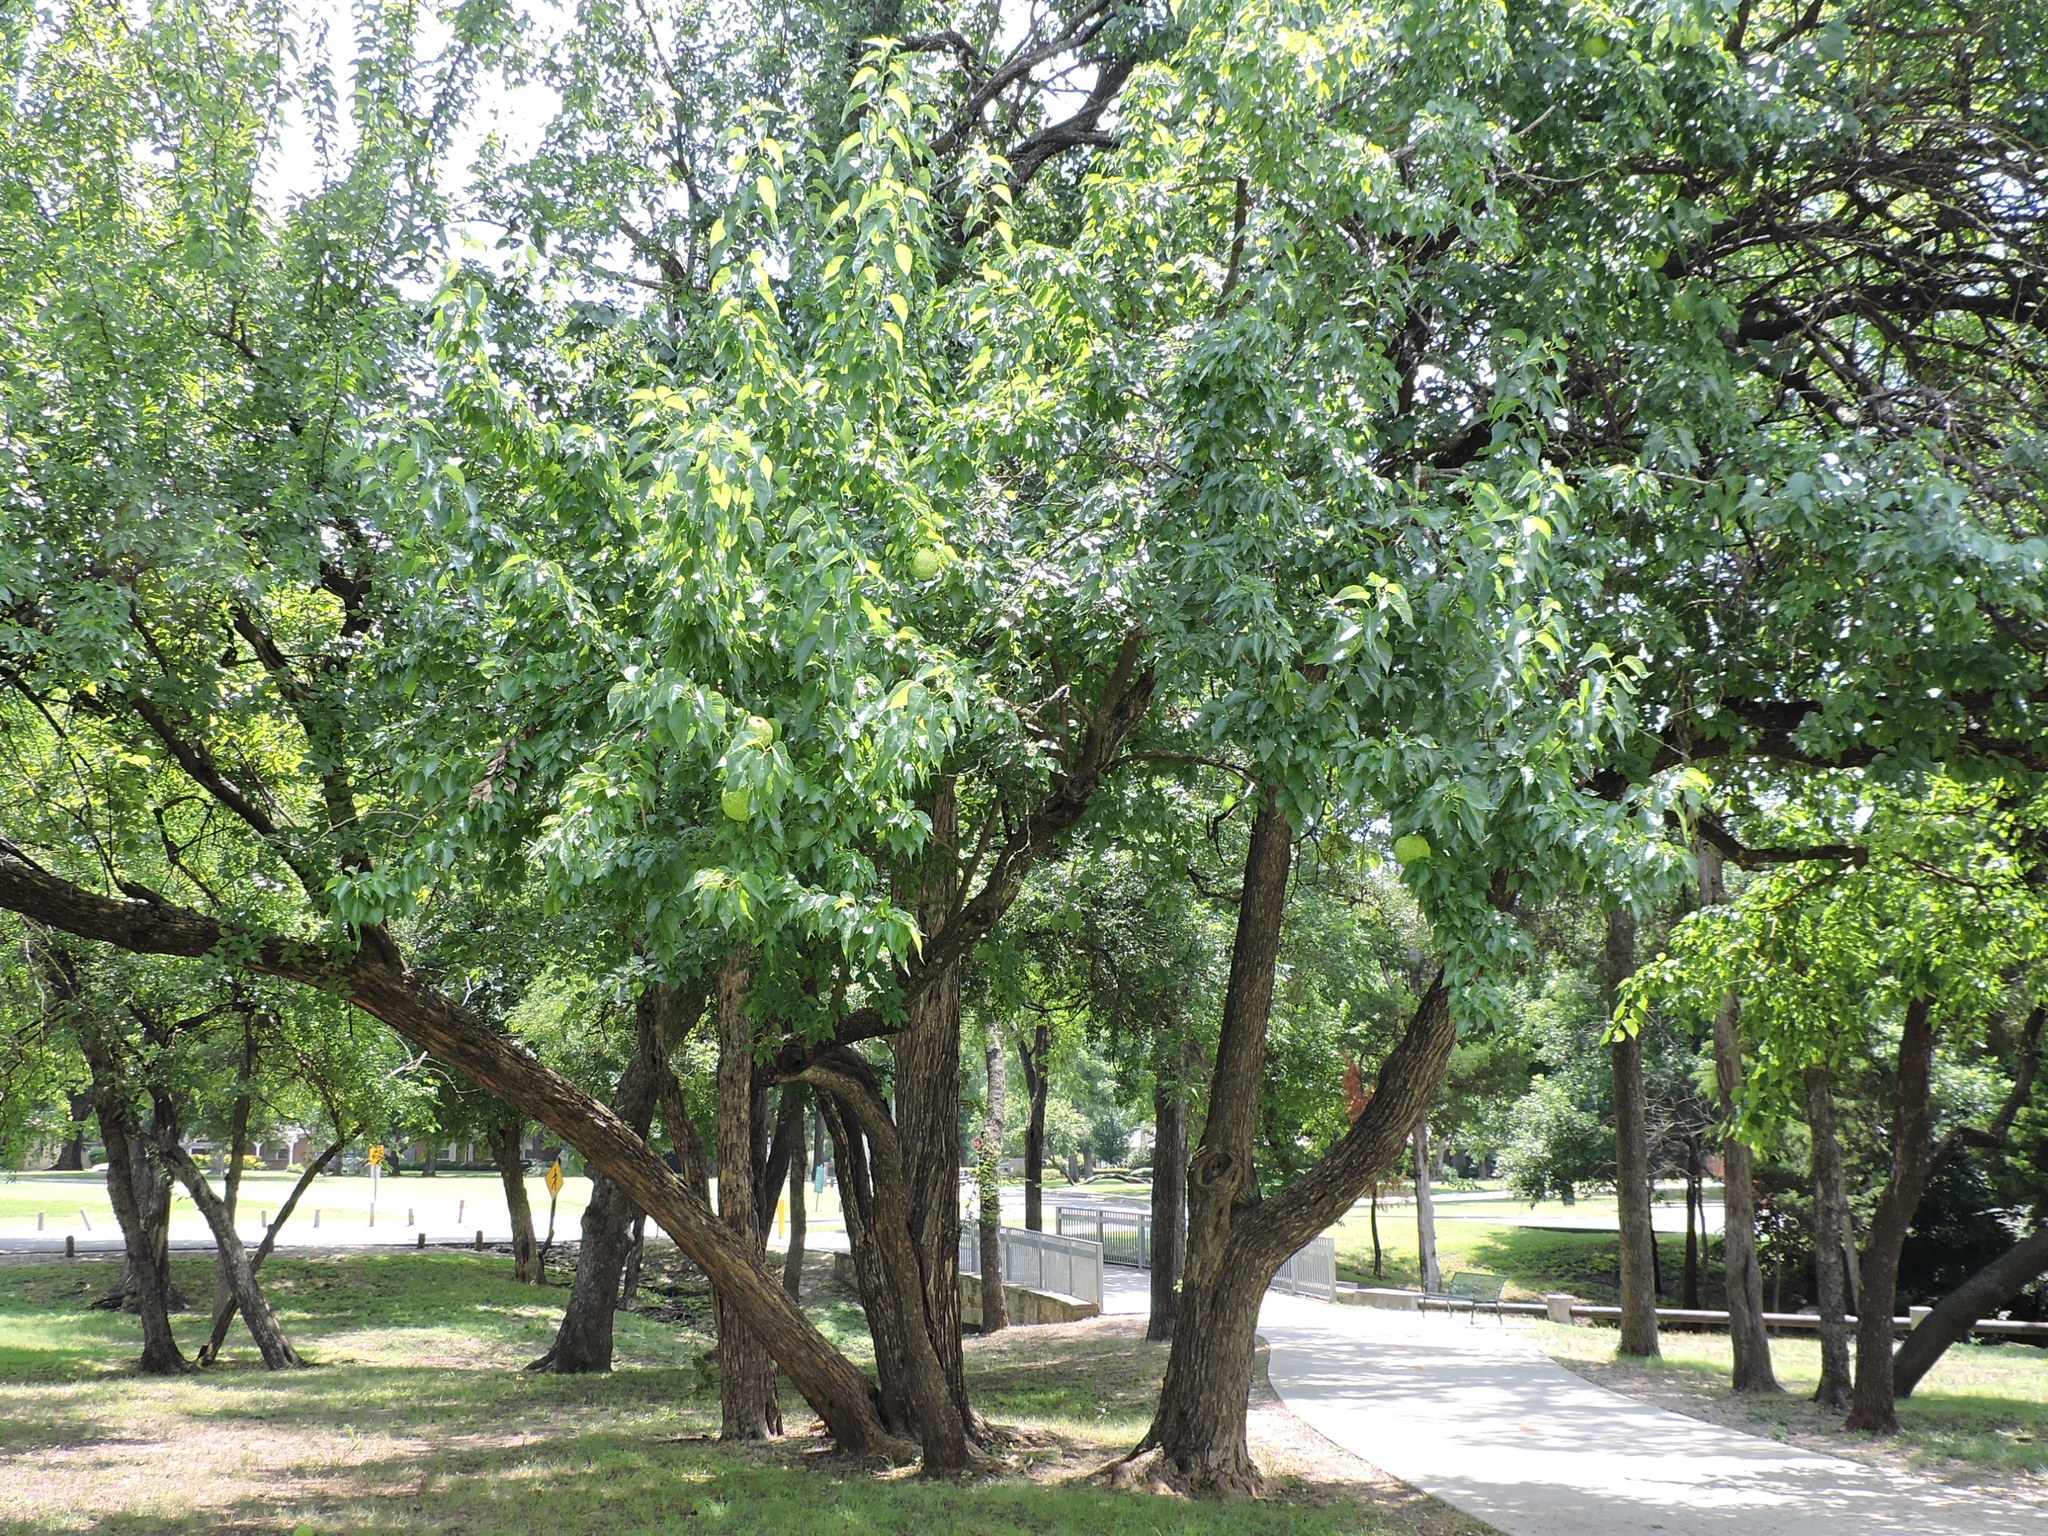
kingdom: Plantae
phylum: Tracheophyta
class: Magnoliopsida
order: Rosales
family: Moraceae
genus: Maclura
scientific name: Maclura pomifera
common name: Osage-orange
